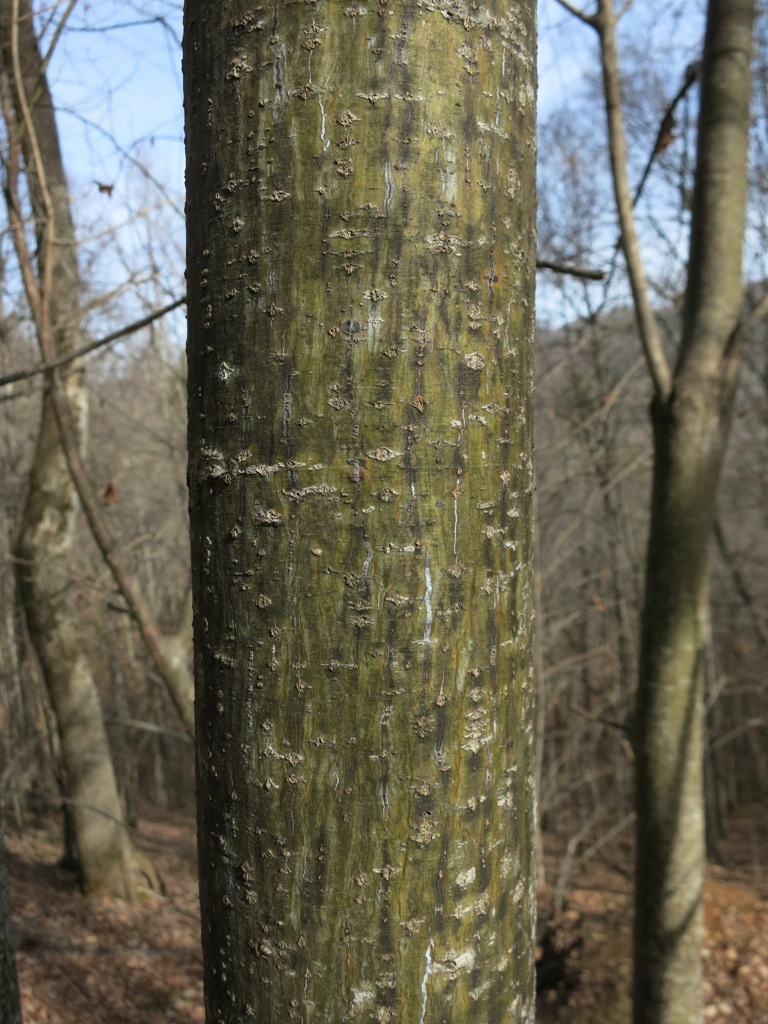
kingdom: Plantae
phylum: Tracheophyta
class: Magnoliopsida
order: Sapindales
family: Sapindaceae
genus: Acer
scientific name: Acer pensylvanicum
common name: Moosewood
